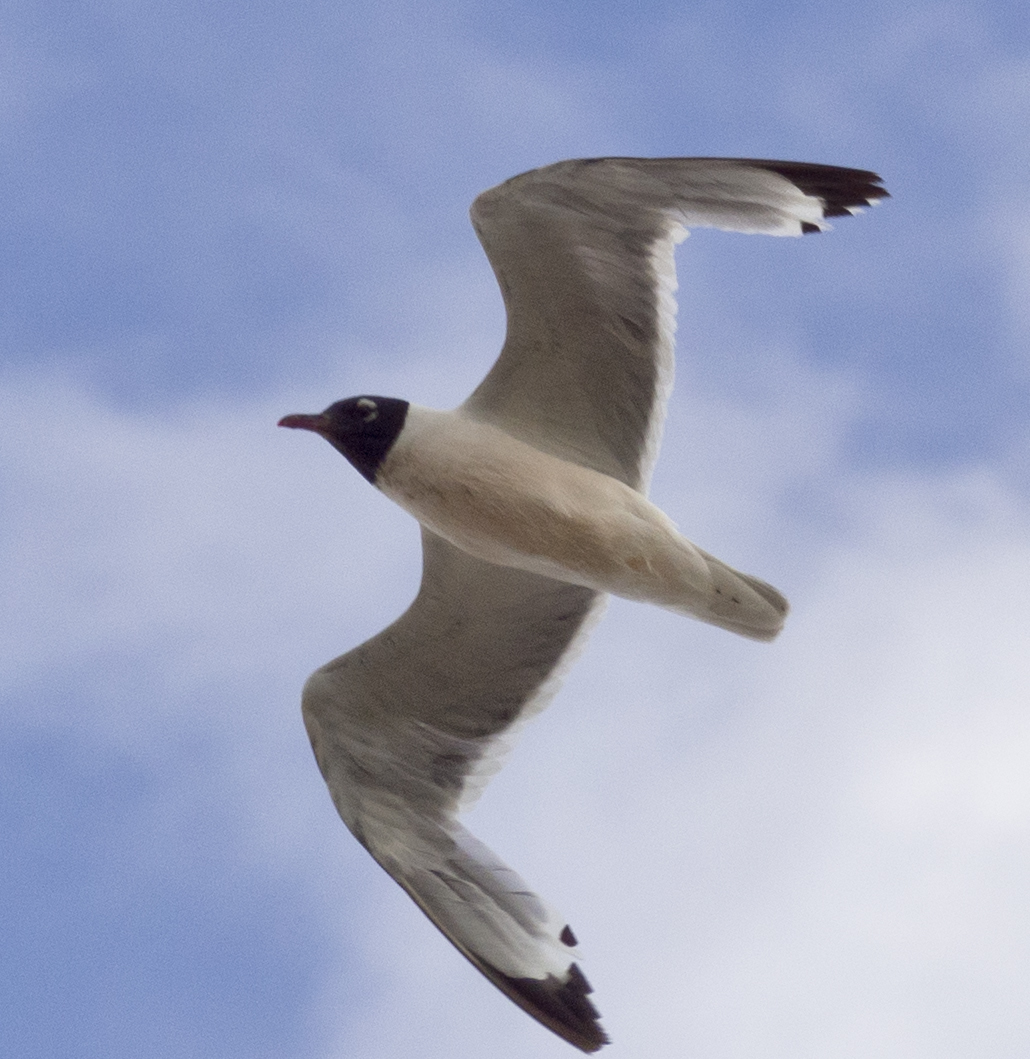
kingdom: Animalia
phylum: Chordata
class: Aves
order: Charadriiformes
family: Laridae
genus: Leucophaeus
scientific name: Leucophaeus pipixcan
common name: Franklin's gull
